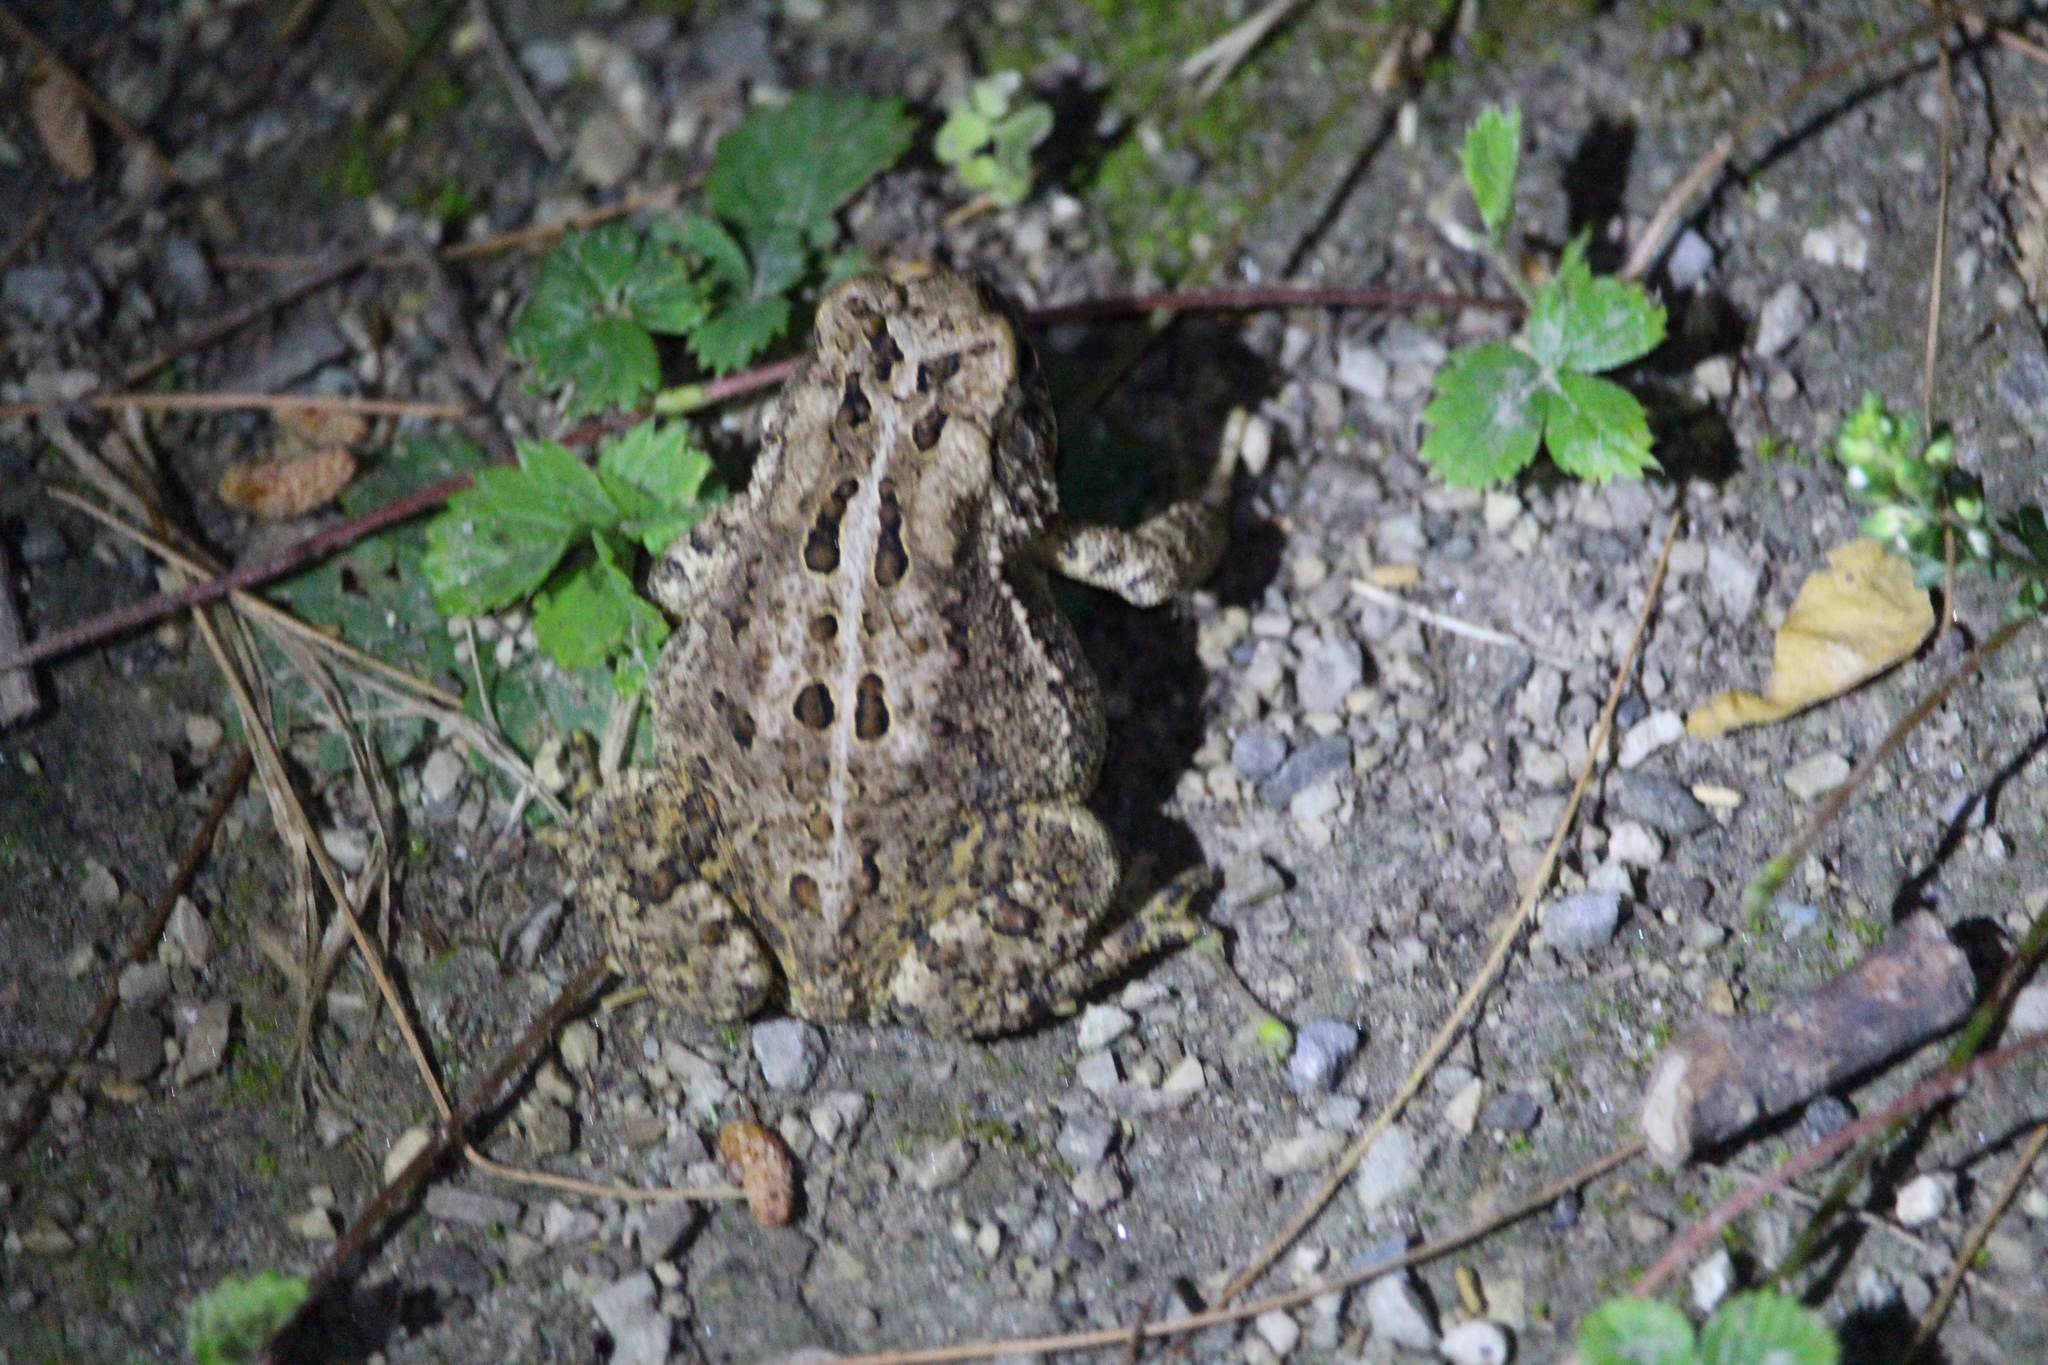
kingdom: Animalia
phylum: Chordata
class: Amphibia
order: Anura
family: Bufonidae
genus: Anaxyrus
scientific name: Anaxyrus americanus
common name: American toad
